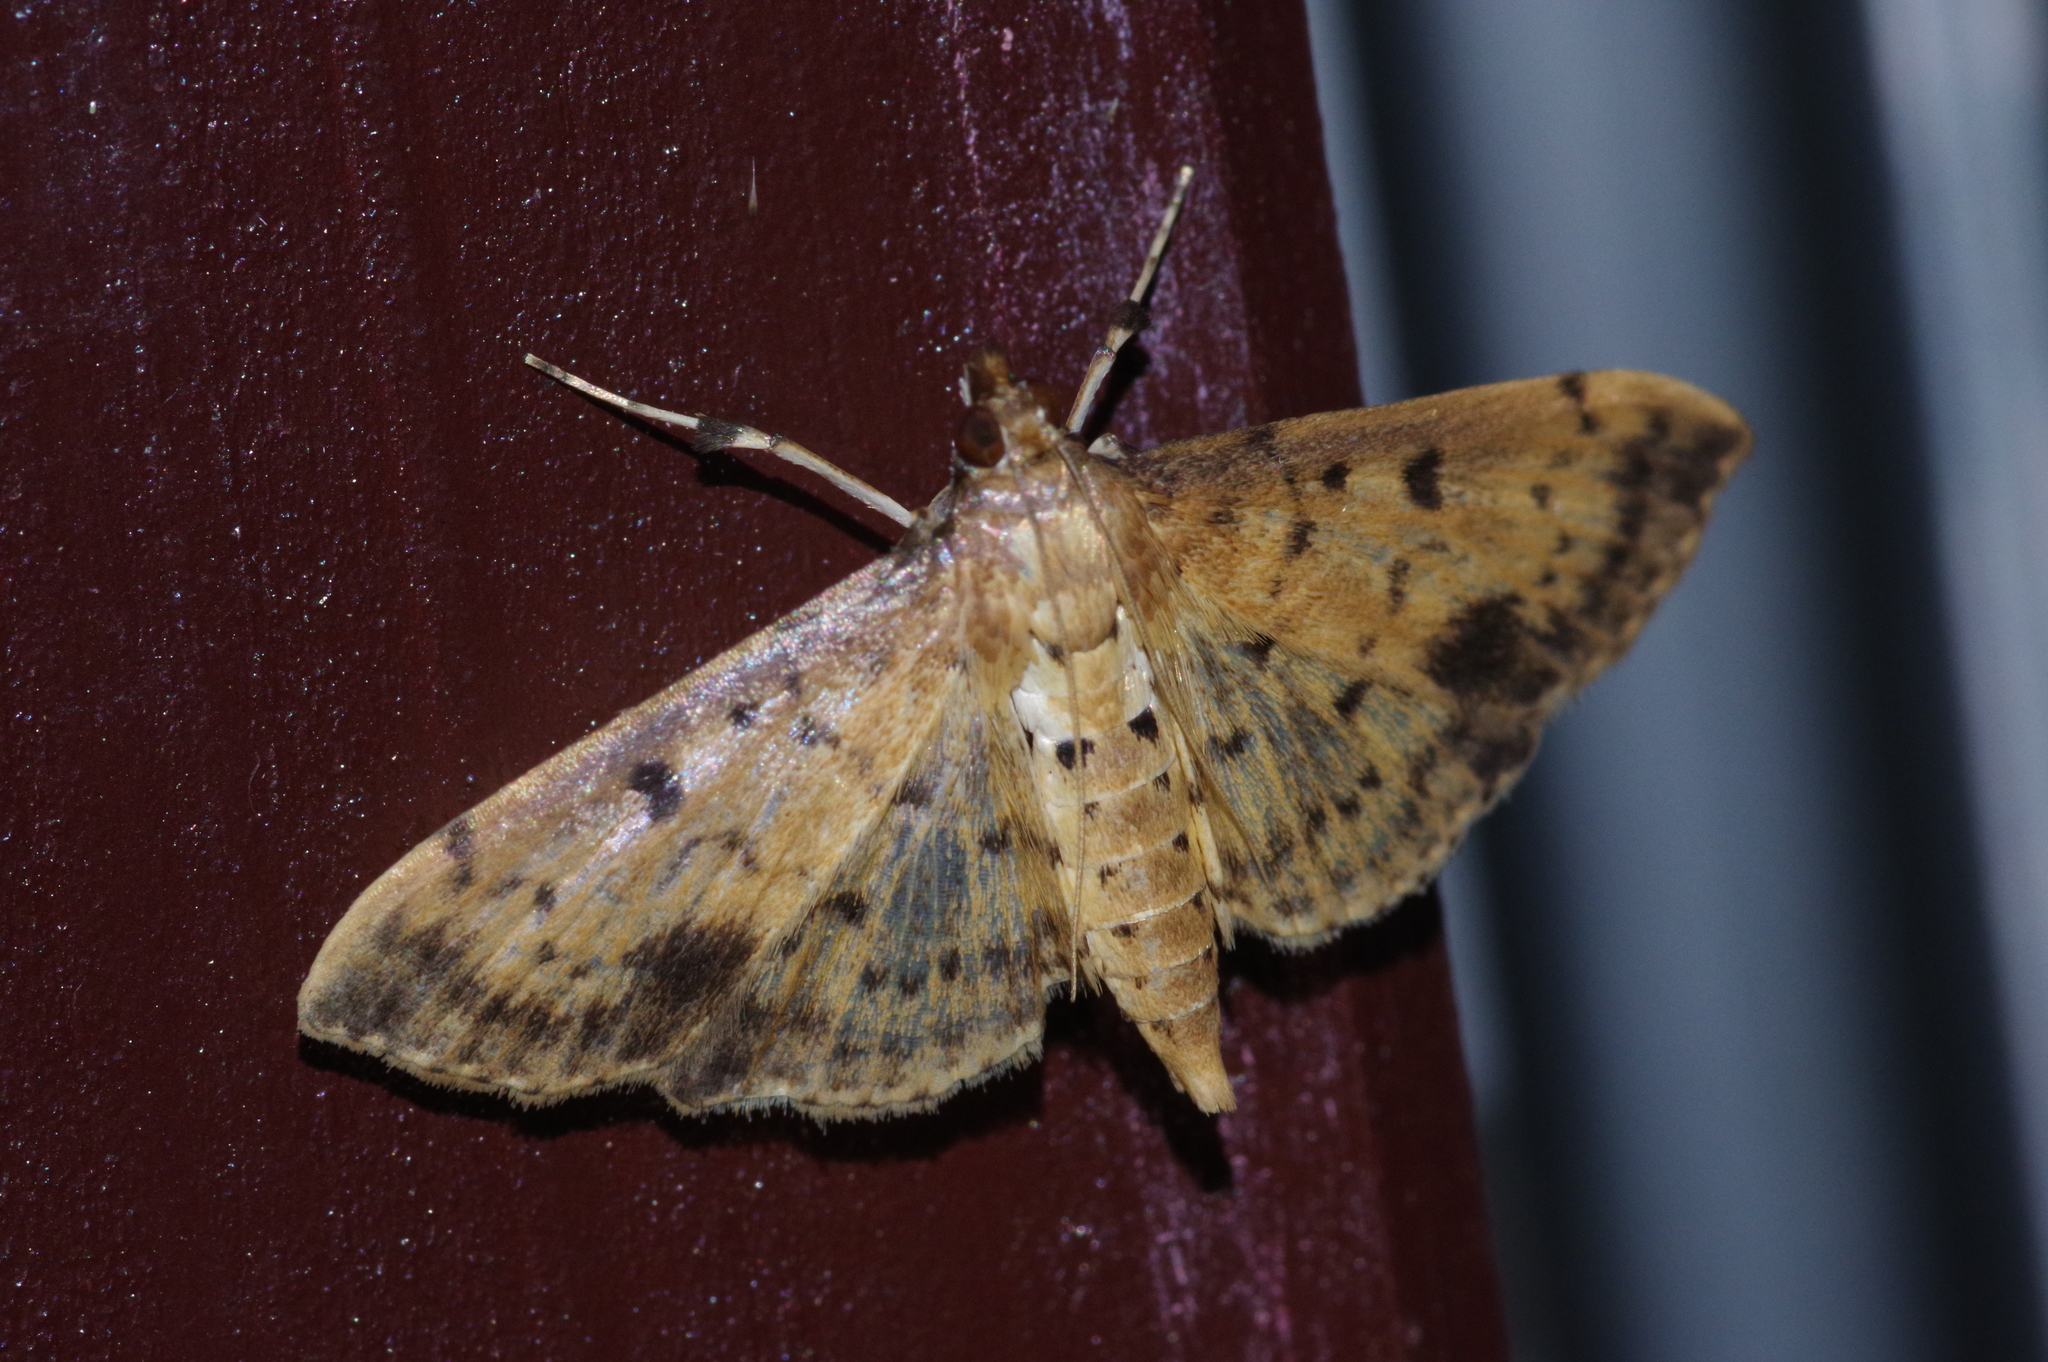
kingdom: Animalia
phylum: Arthropoda
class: Insecta
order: Lepidoptera
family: Crambidae
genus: Herpetogramma
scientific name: Herpetogramma cynaralis
